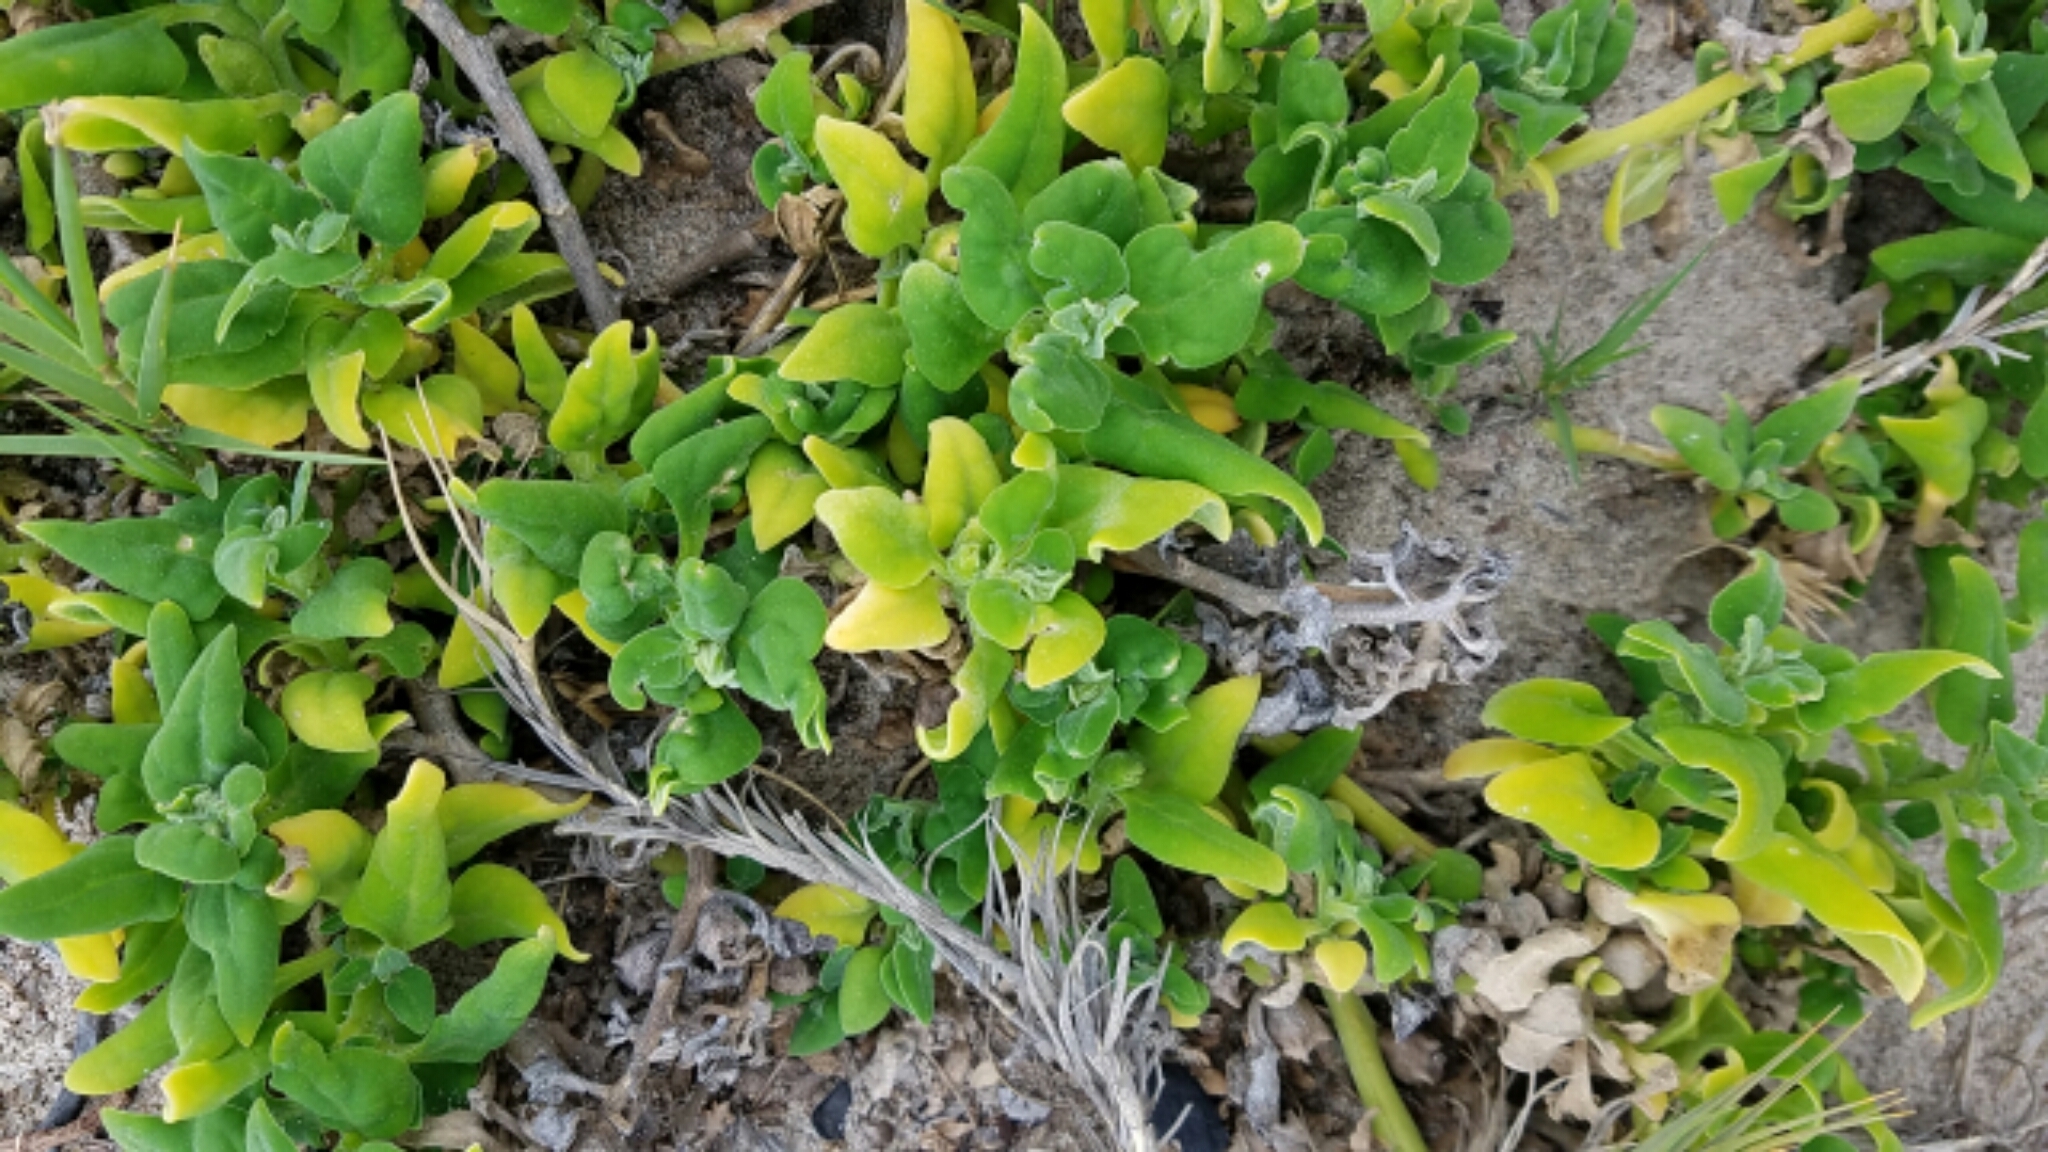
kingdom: Plantae
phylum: Tracheophyta
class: Magnoliopsida
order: Caryophyllales
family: Aizoaceae
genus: Tetragonia
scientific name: Tetragonia tetragonoides
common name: New zealand-spinach
